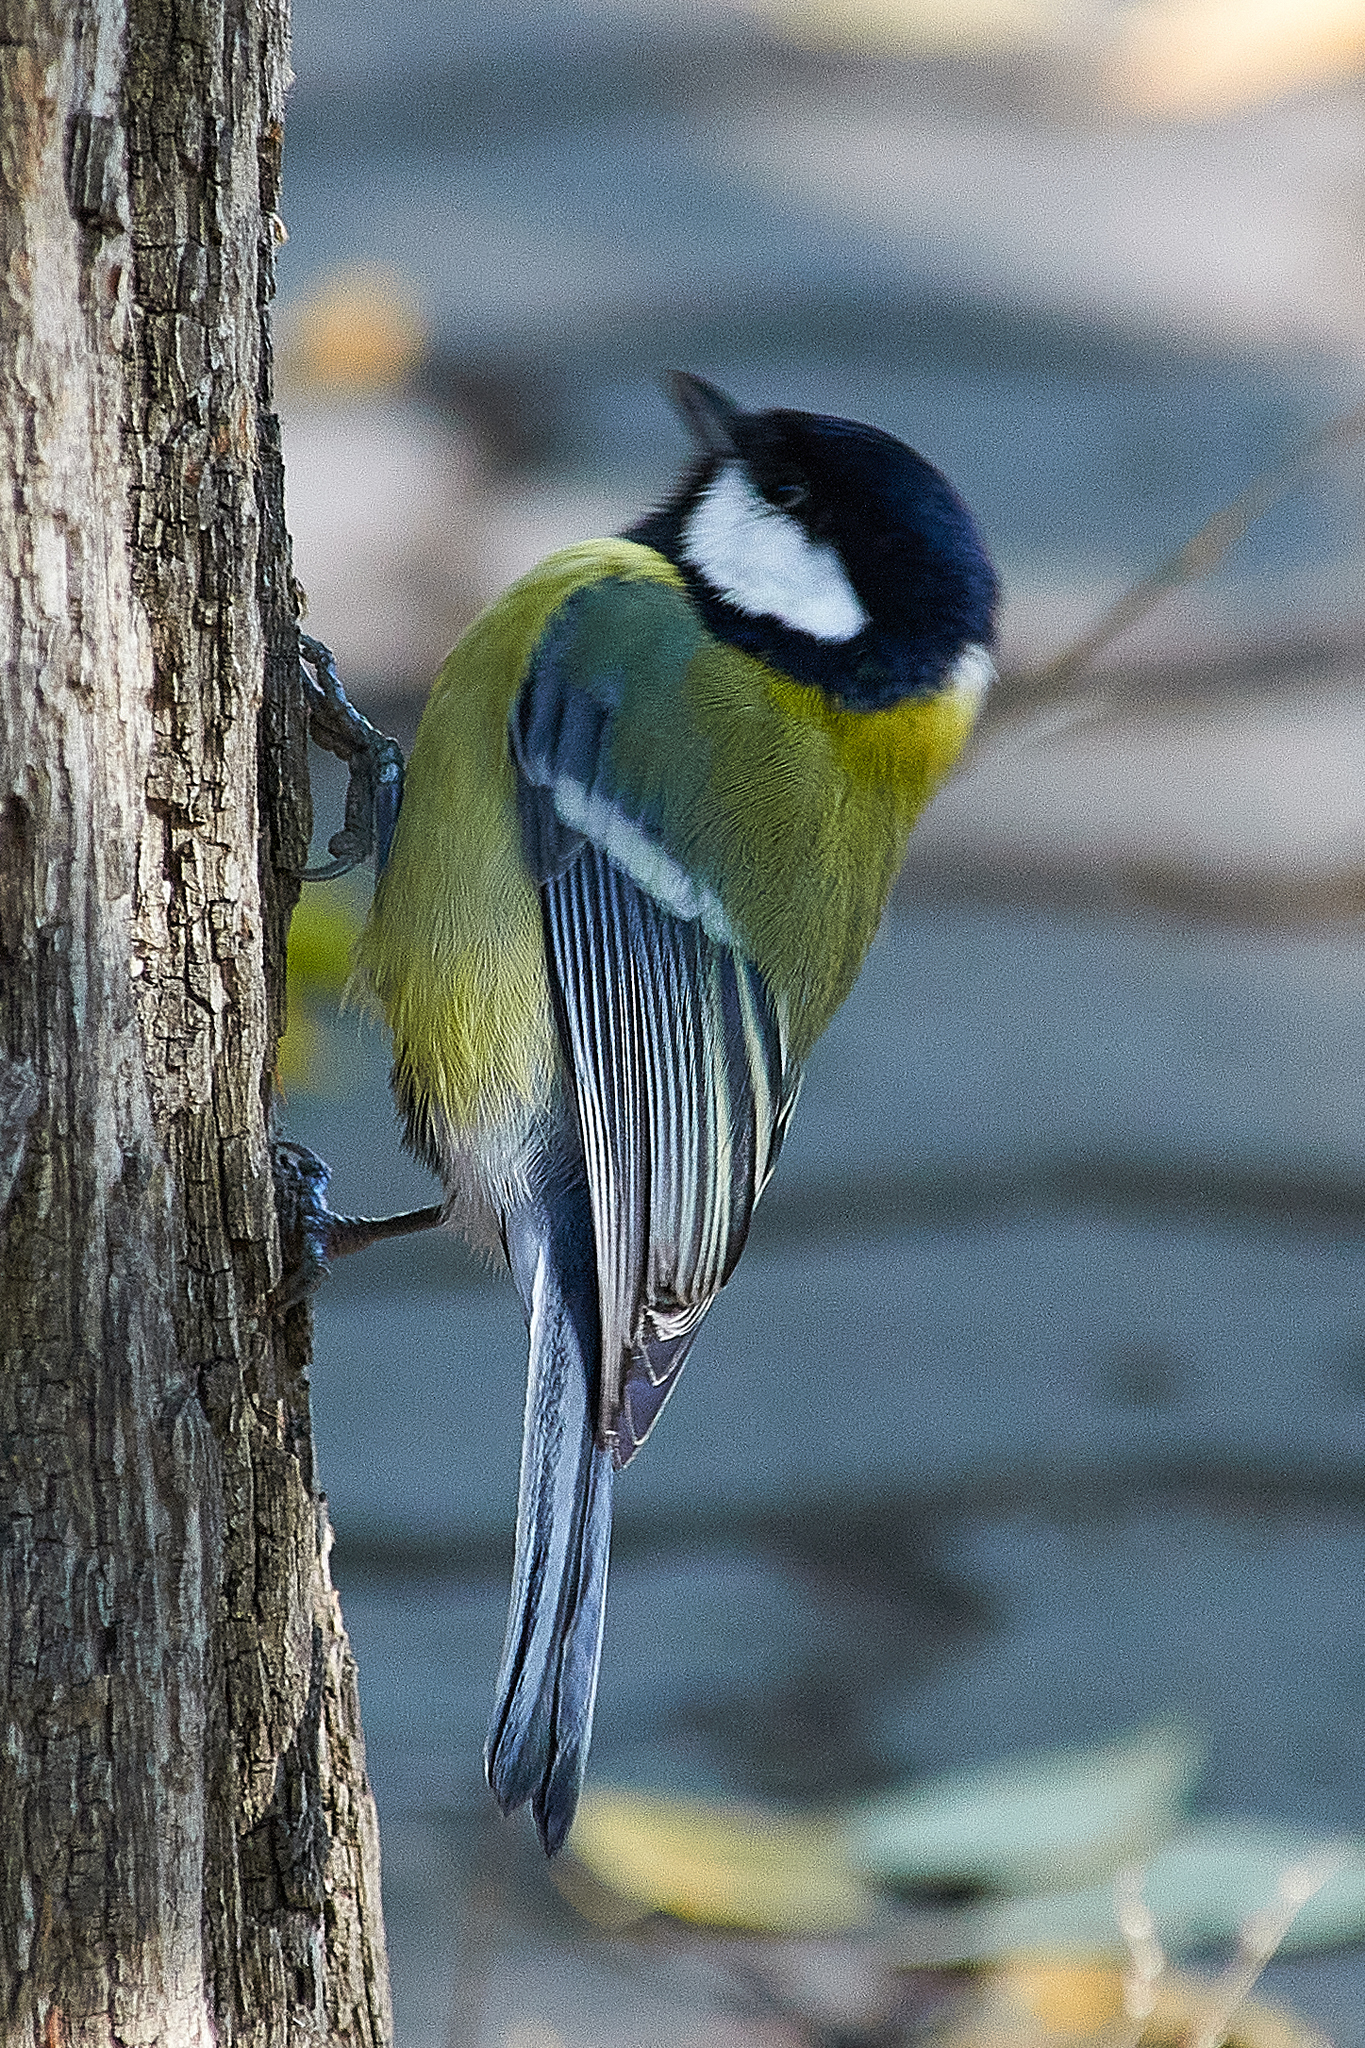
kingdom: Animalia
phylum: Chordata
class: Aves
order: Passeriformes
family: Paridae
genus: Parus
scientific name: Parus major
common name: Great tit
